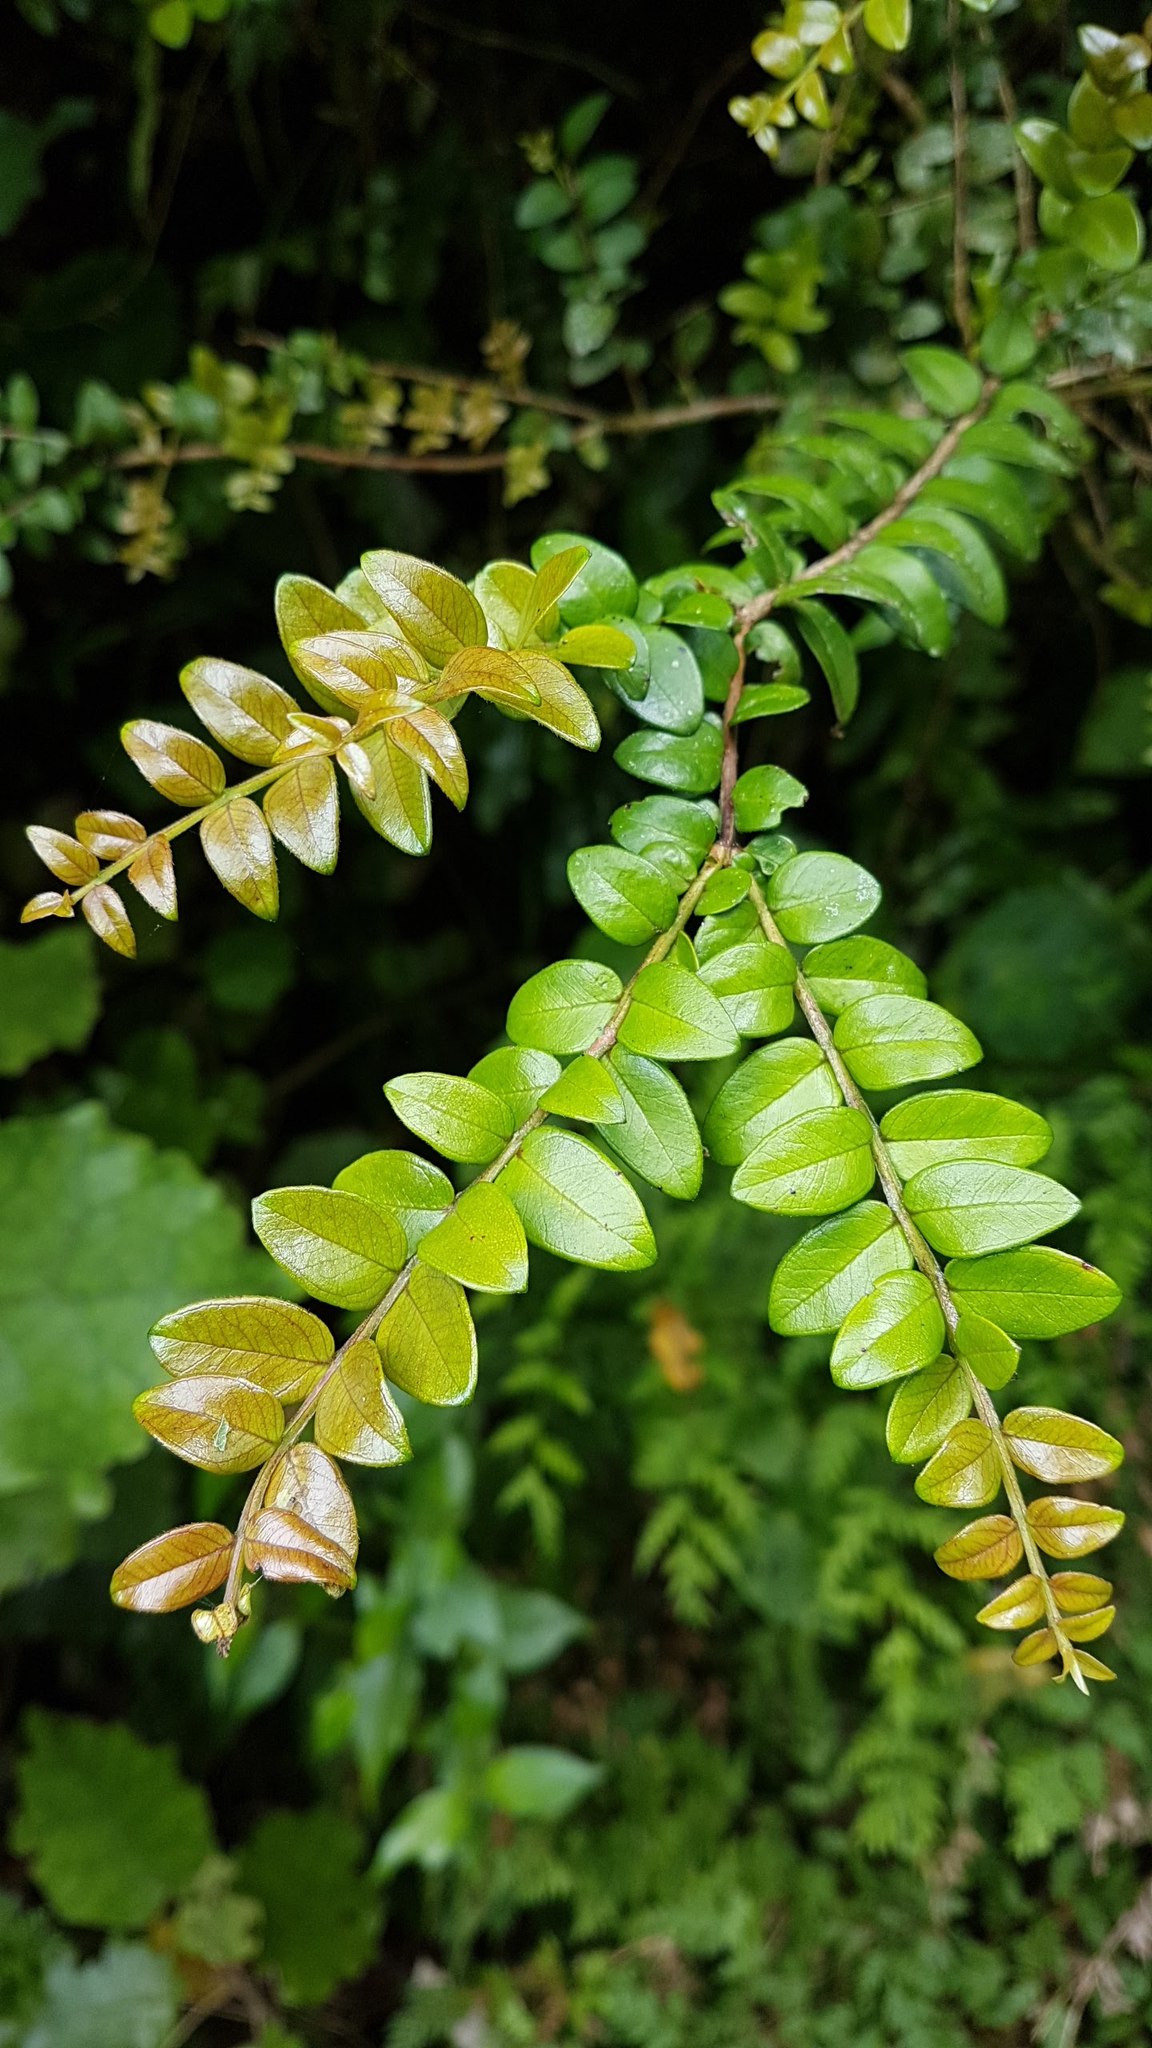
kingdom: Plantae
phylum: Tracheophyta
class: Magnoliopsida
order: Myrtales
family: Myrtaceae
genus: Metrosideros
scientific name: Metrosideros diffusa
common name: Small ratavine
